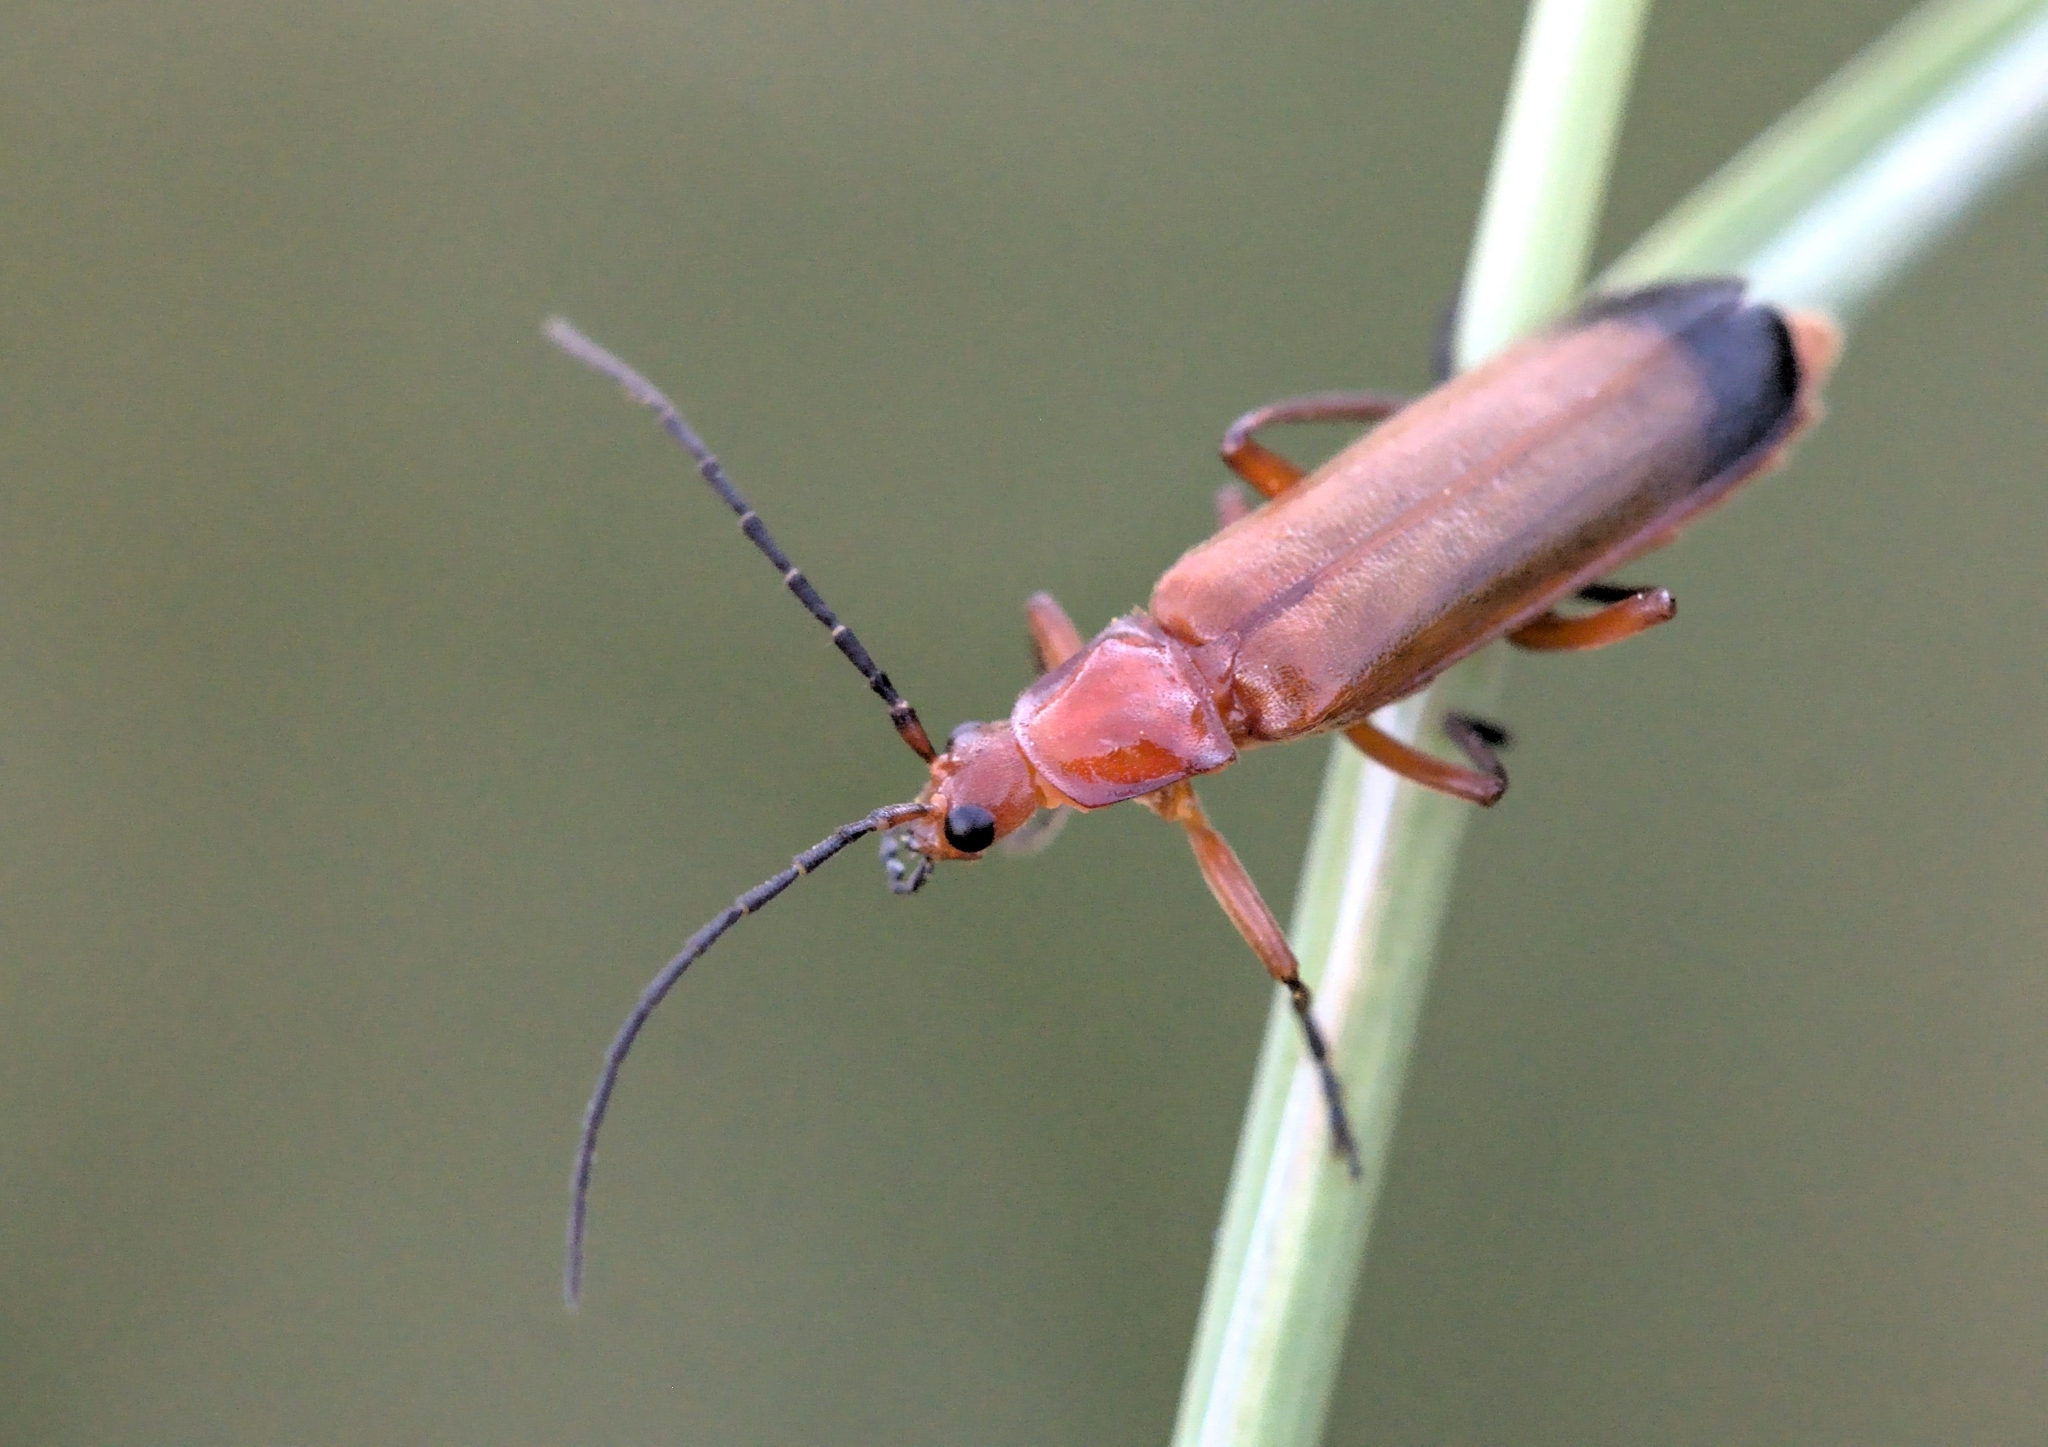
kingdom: Animalia
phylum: Arthropoda
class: Insecta
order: Coleoptera
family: Cantharidae
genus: Rhagonycha
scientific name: Rhagonycha fulva
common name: Common red soldier beetle
